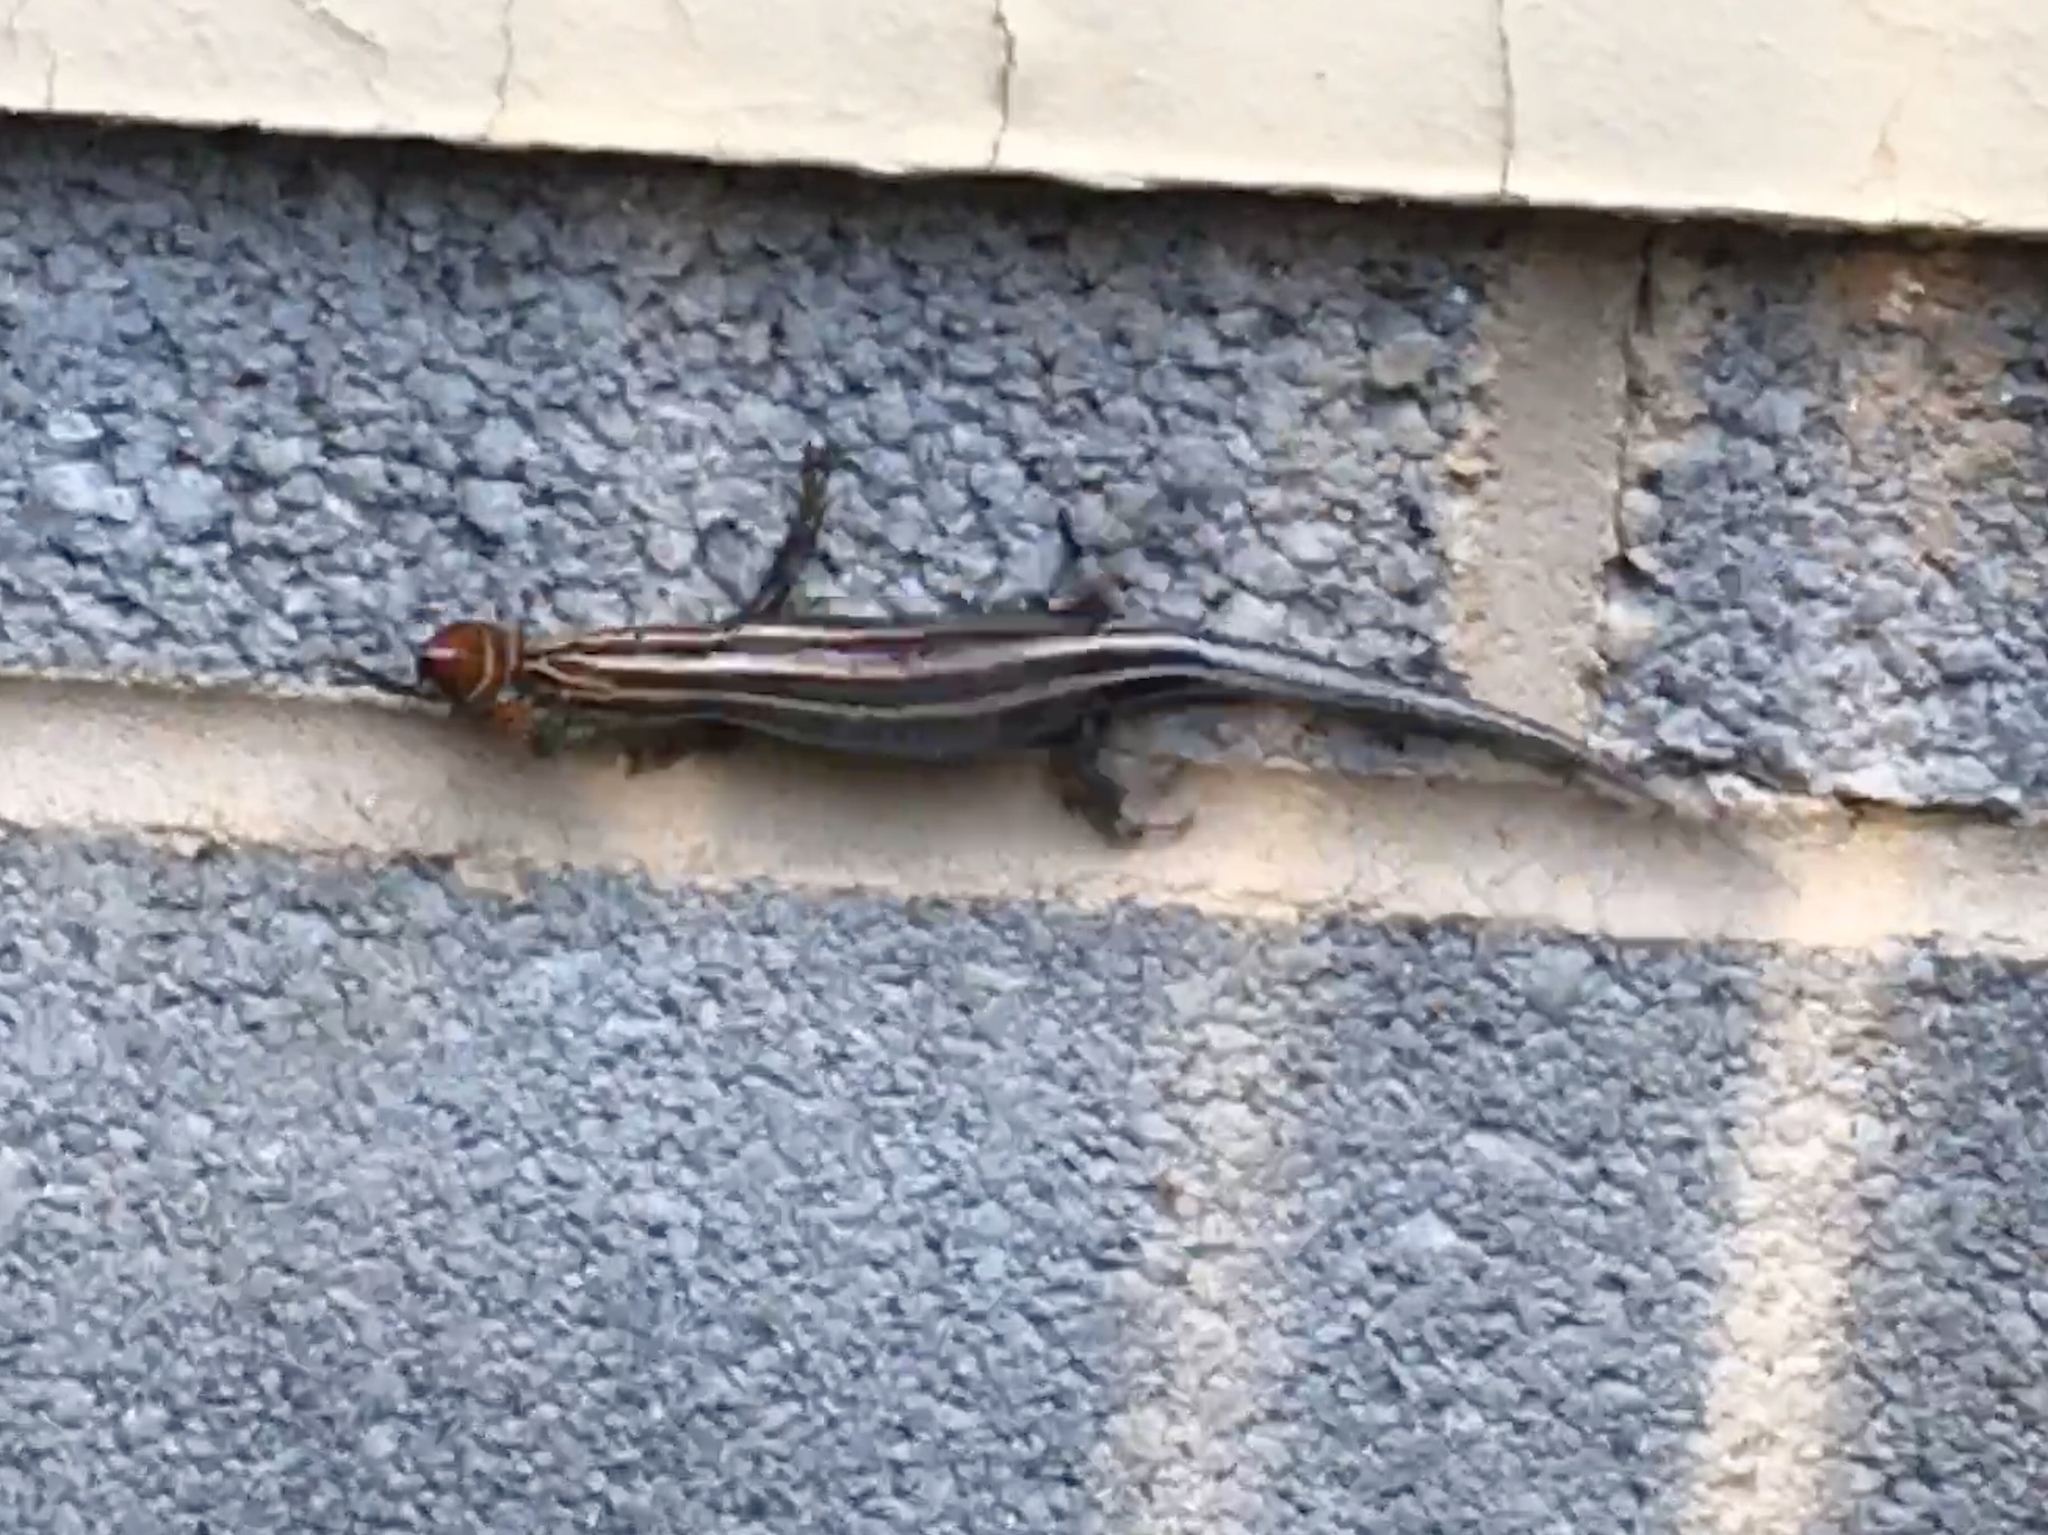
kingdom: Animalia
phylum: Chordata
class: Squamata
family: Scincidae
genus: Plestiodon
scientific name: Plestiodon fasciatus
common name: Five-lined skink
